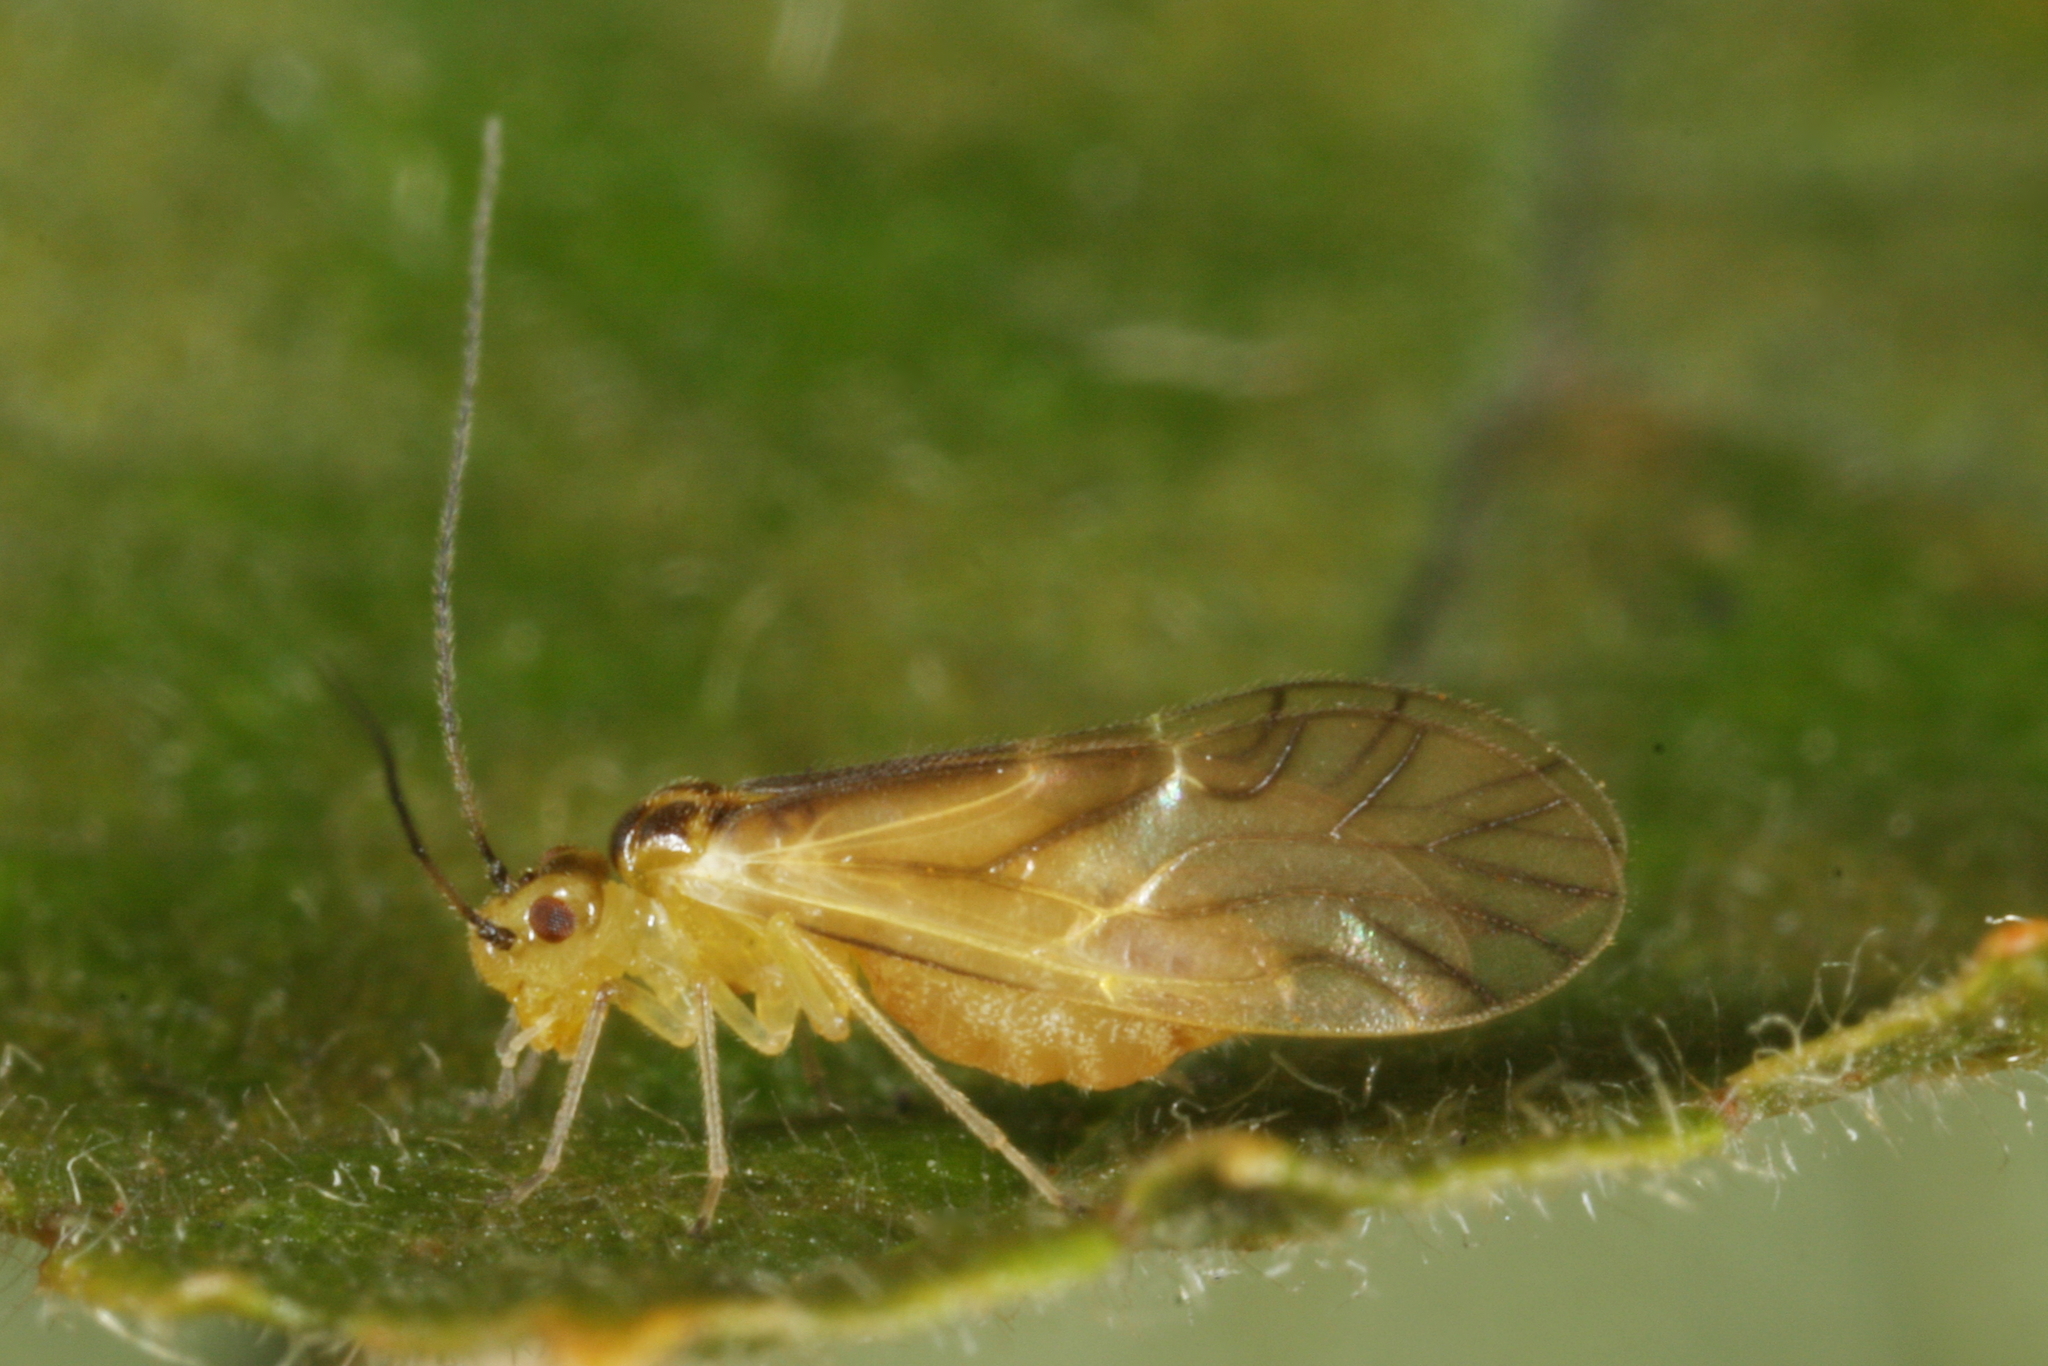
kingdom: Animalia
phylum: Arthropoda
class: Insecta
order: Psocodea
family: Caeciliusidae
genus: Valenzuela
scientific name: Valenzuela flavidus
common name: Yellow barklouse
